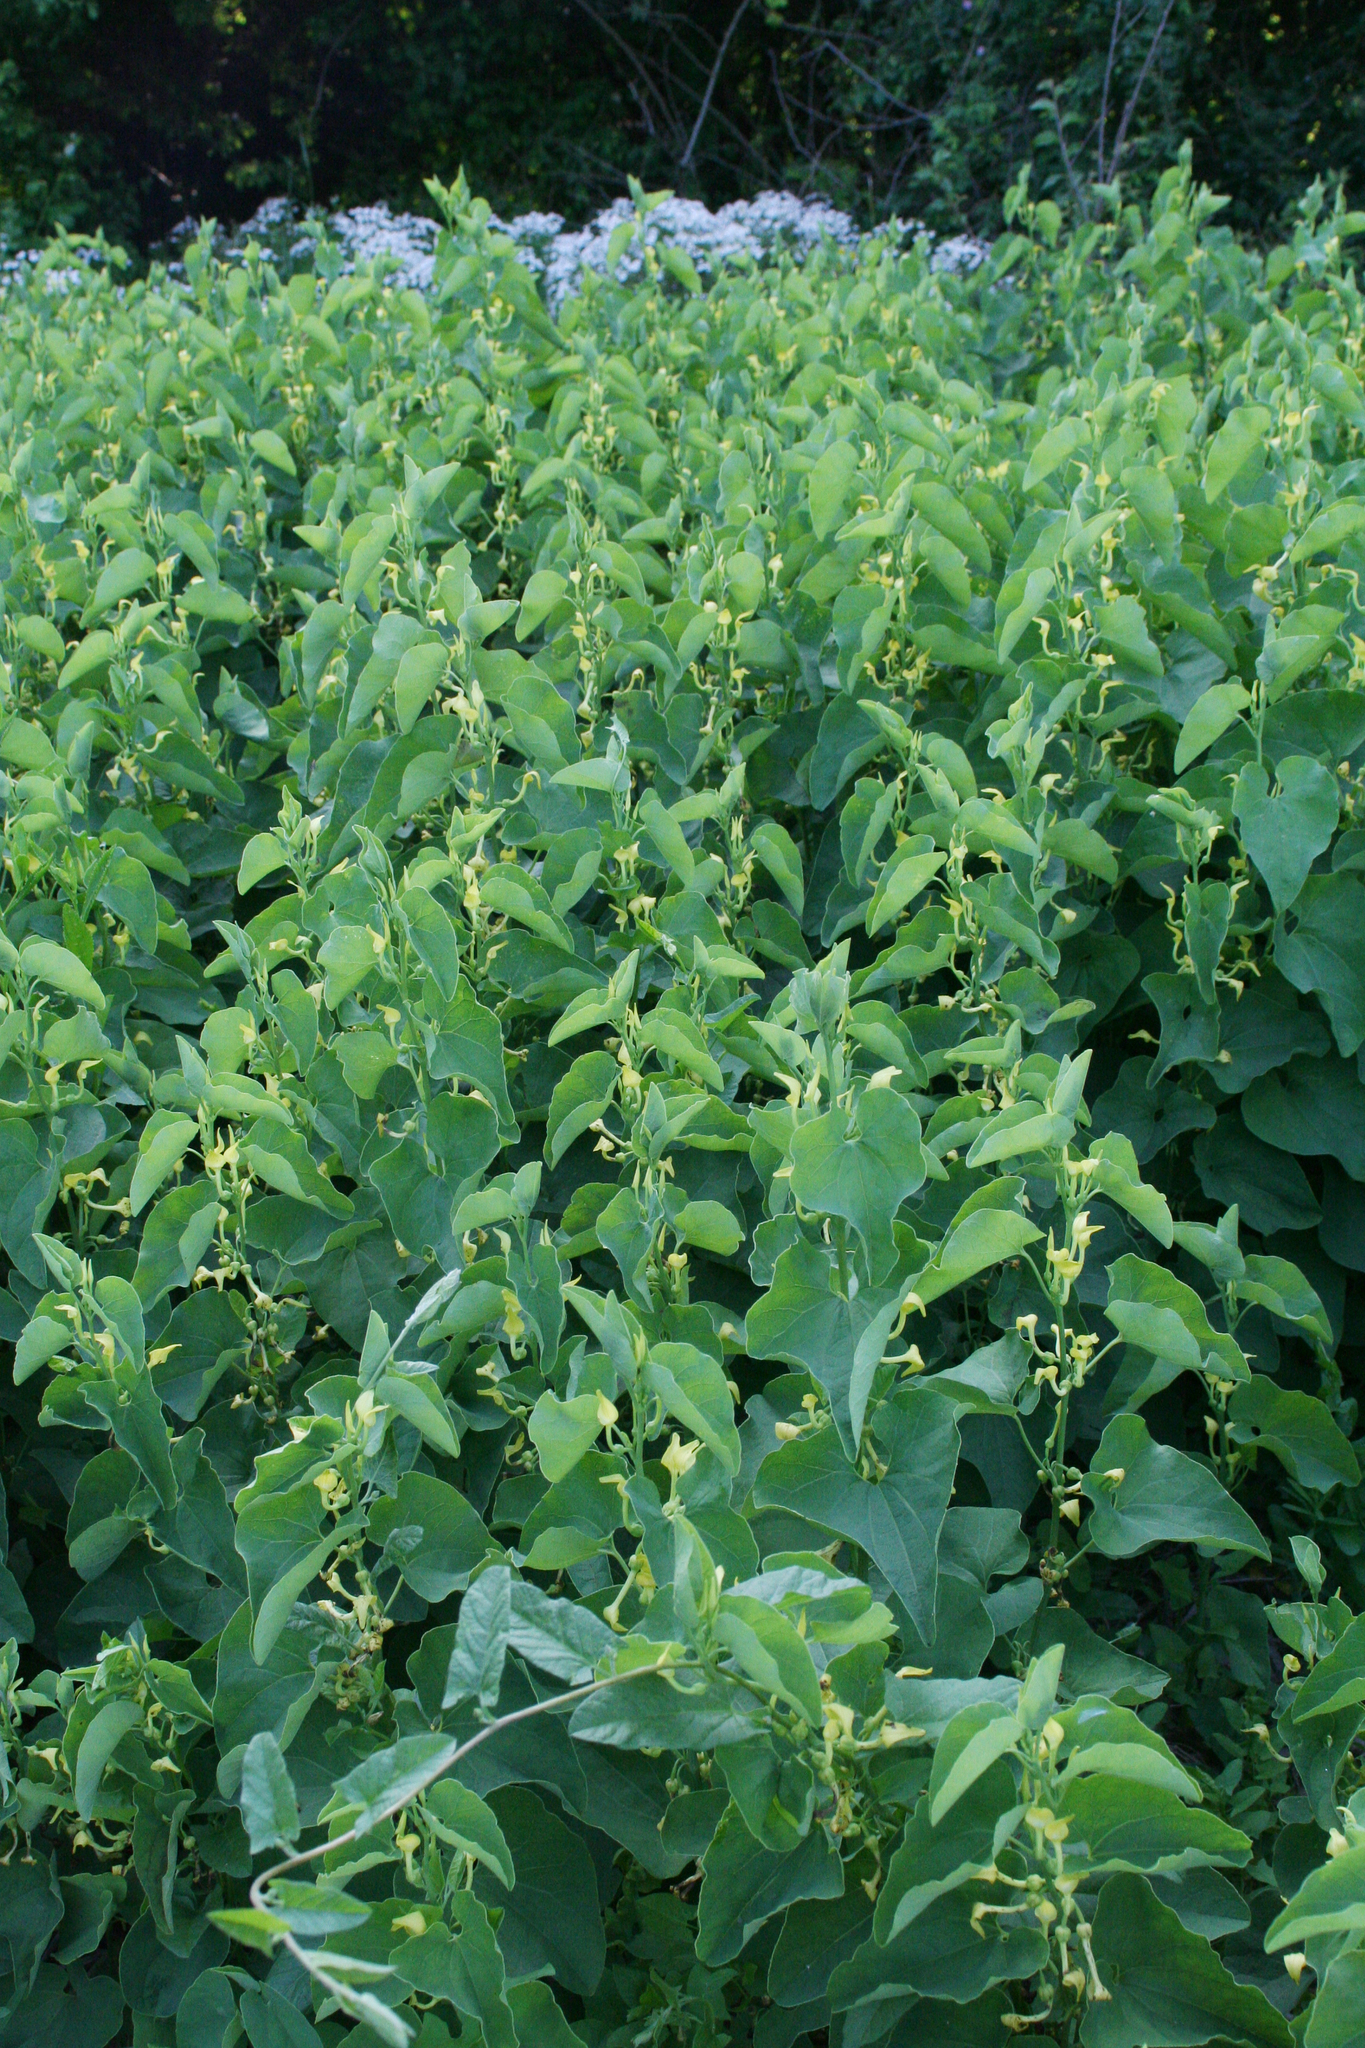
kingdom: Plantae
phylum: Tracheophyta
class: Magnoliopsida
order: Piperales
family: Aristolochiaceae
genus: Aristolochia
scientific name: Aristolochia clematitis
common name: Birthwort
